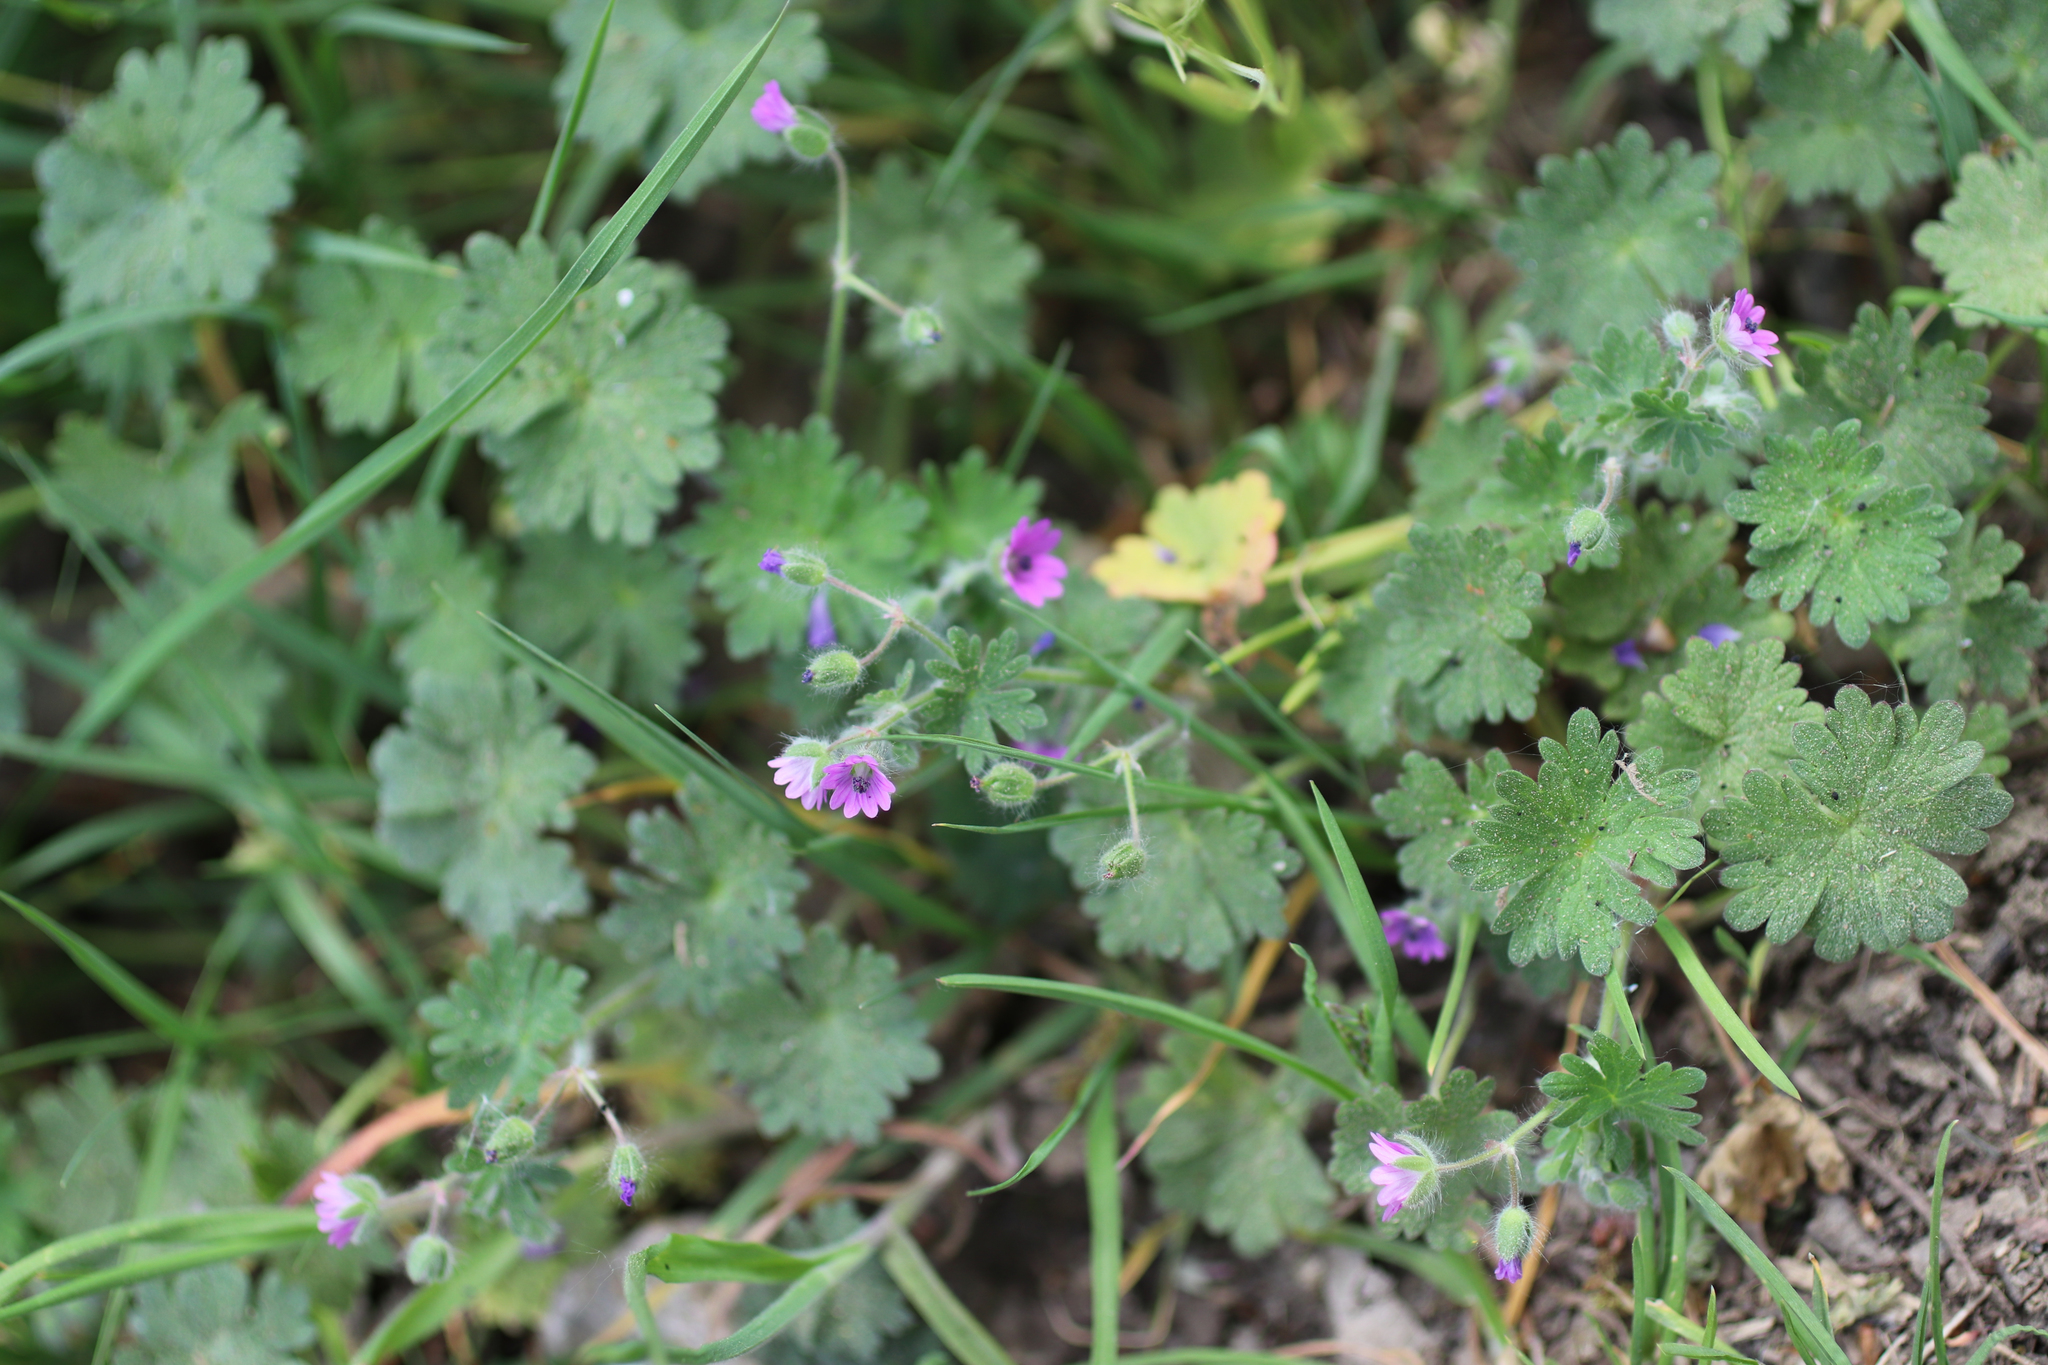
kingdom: Plantae
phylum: Tracheophyta
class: Magnoliopsida
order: Geraniales
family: Geraniaceae
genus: Geranium
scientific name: Geranium molle
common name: Dove's-foot crane's-bill
